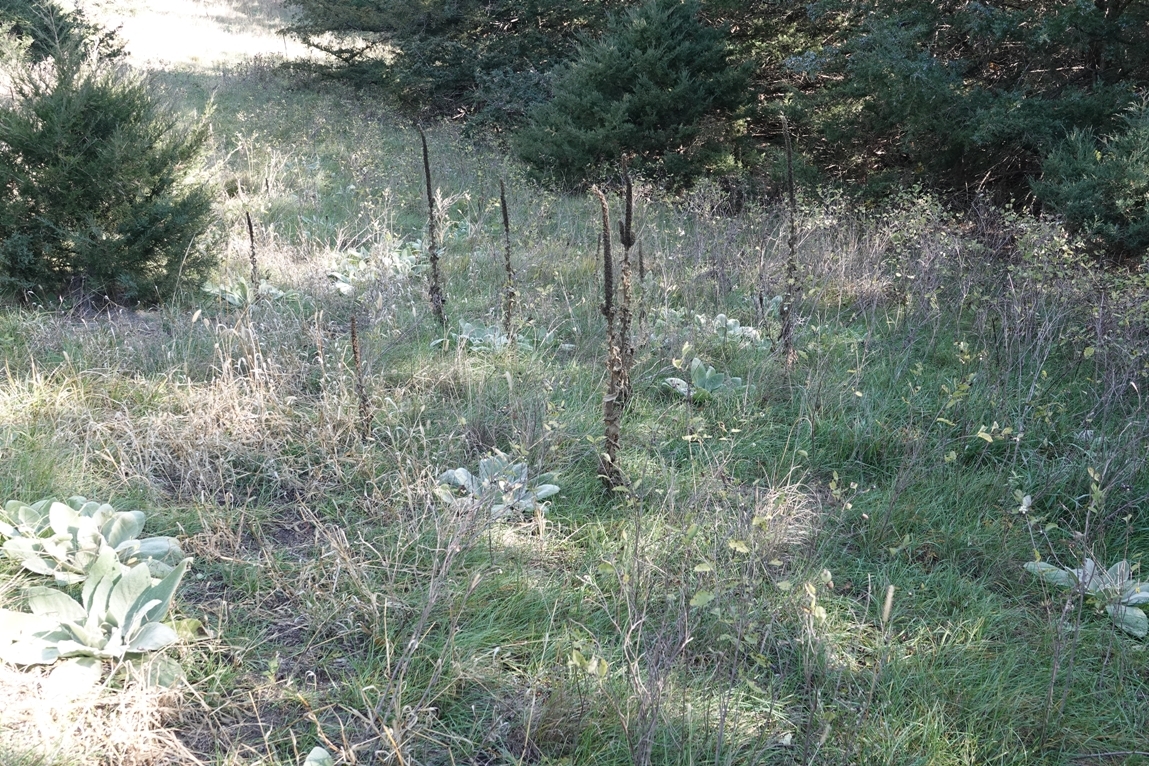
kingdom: Plantae
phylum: Tracheophyta
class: Magnoliopsida
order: Lamiales
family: Scrophulariaceae
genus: Verbascum
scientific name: Verbascum thapsus
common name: Common mullein
